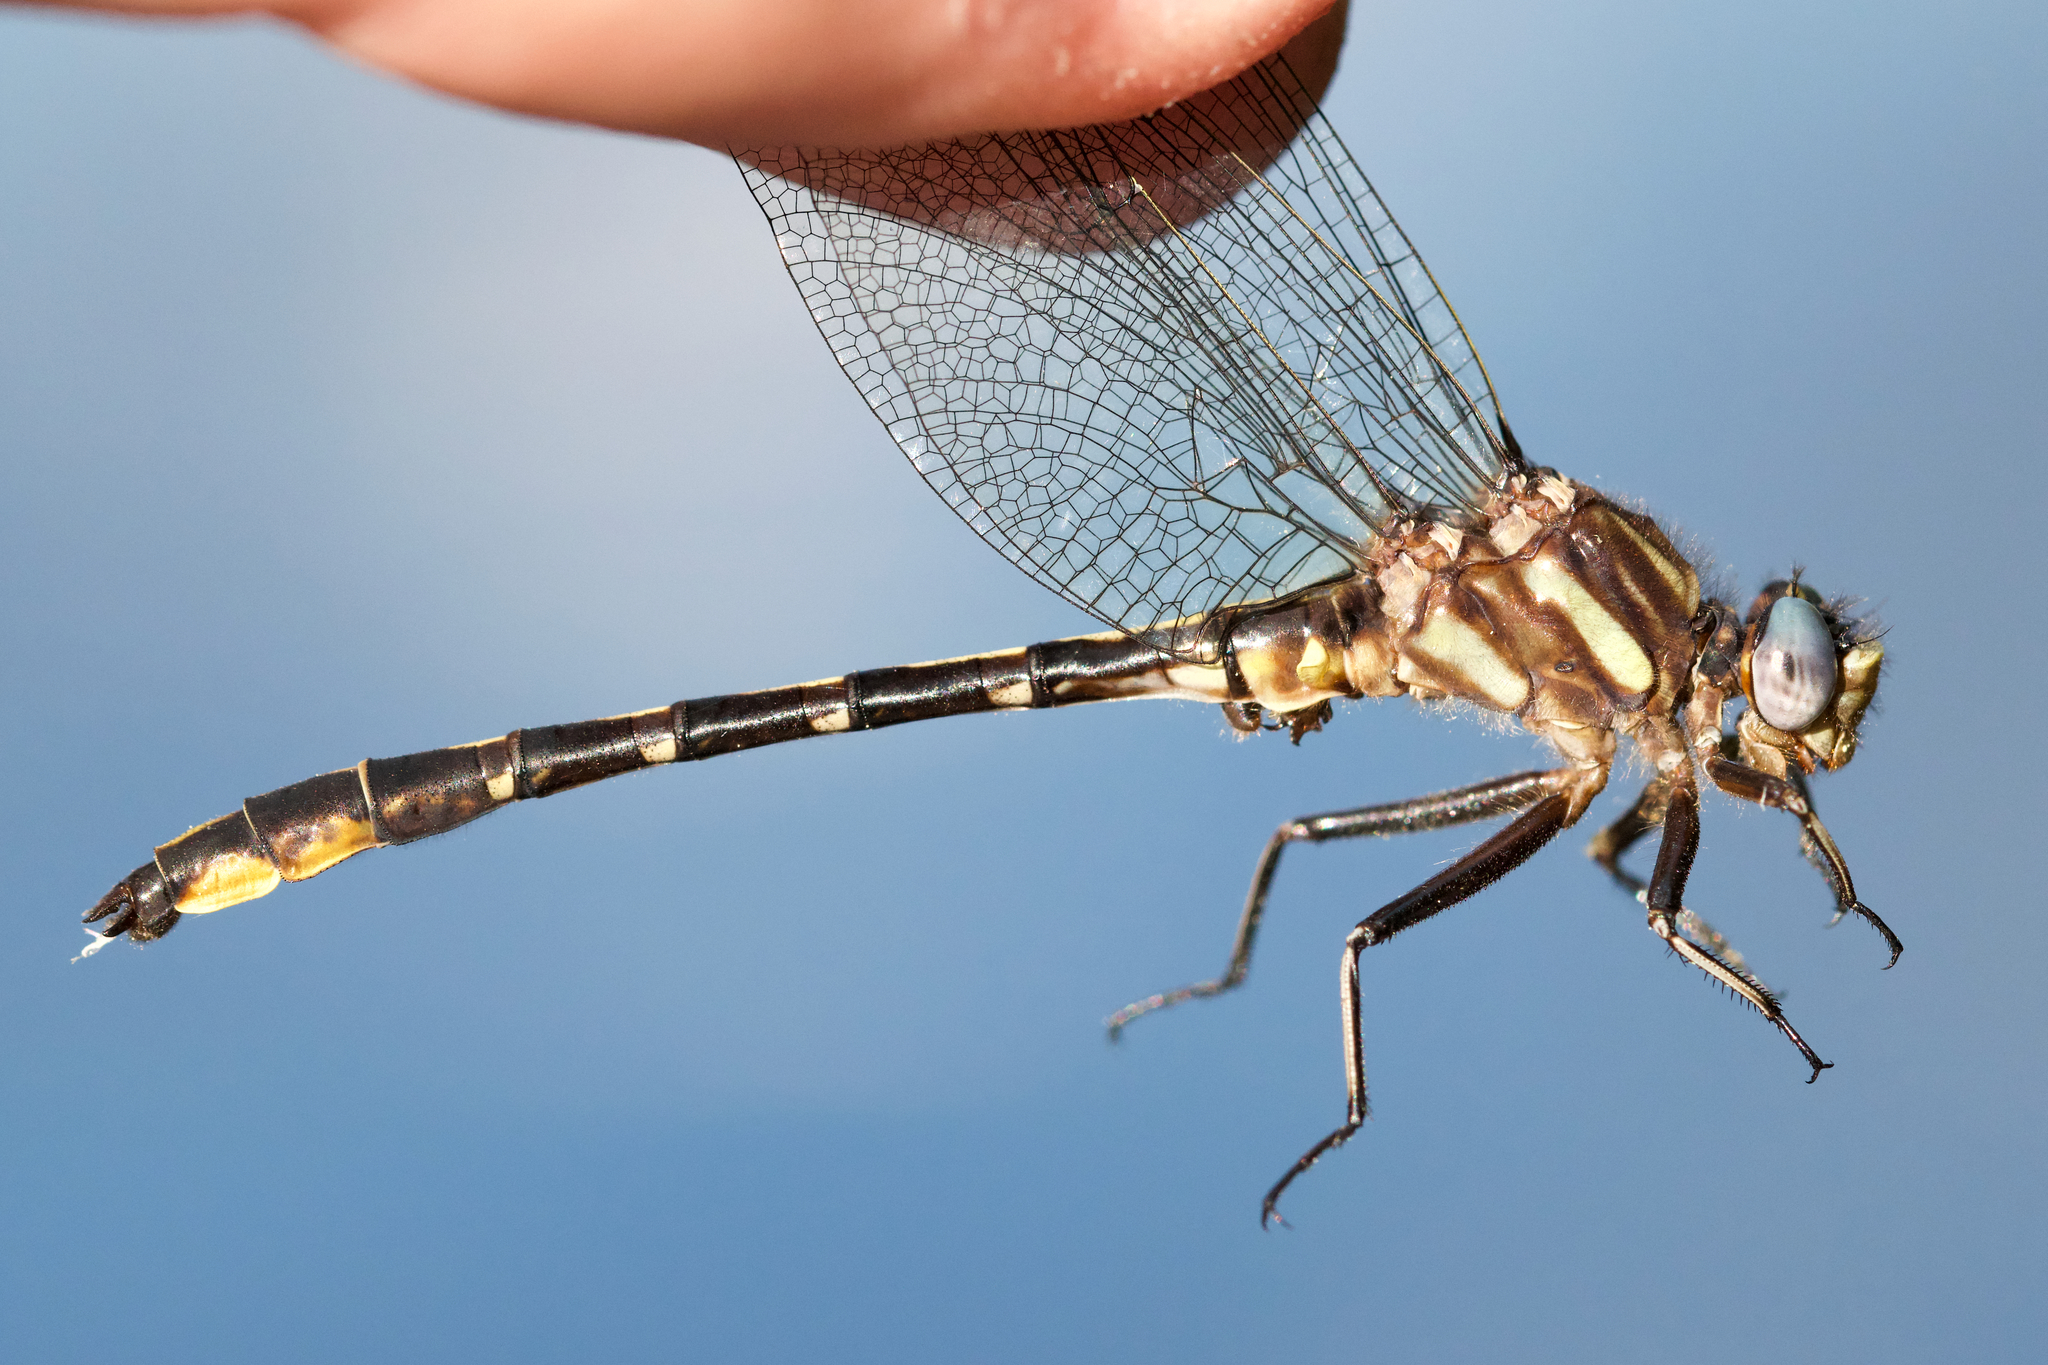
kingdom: Animalia
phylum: Arthropoda
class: Insecta
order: Odonata
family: Gomphidae
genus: Phanogomphus
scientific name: Phanogomphus exilis
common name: Lancet clubtail
